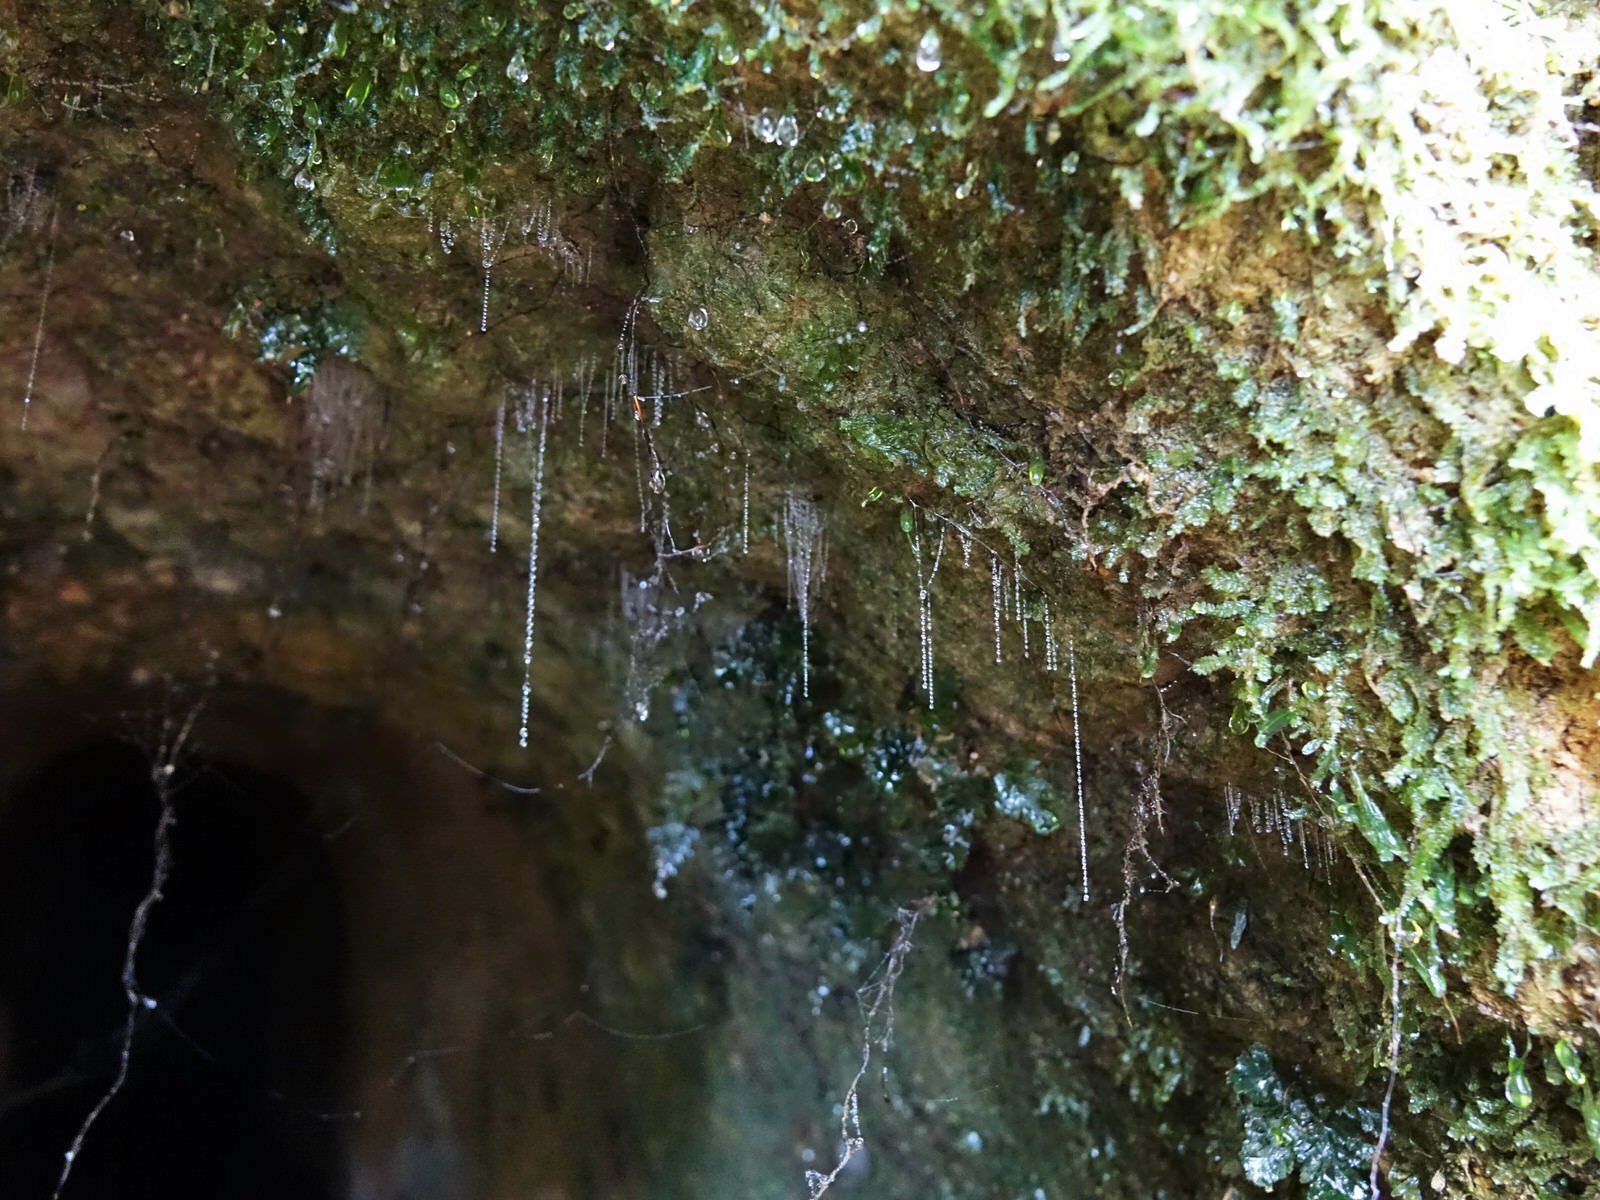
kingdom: Animalia
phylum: Arthropoda
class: Insecta
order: Diptera
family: Keroplatidae
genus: Arachnocampa
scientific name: Arachnocampa luminosa
